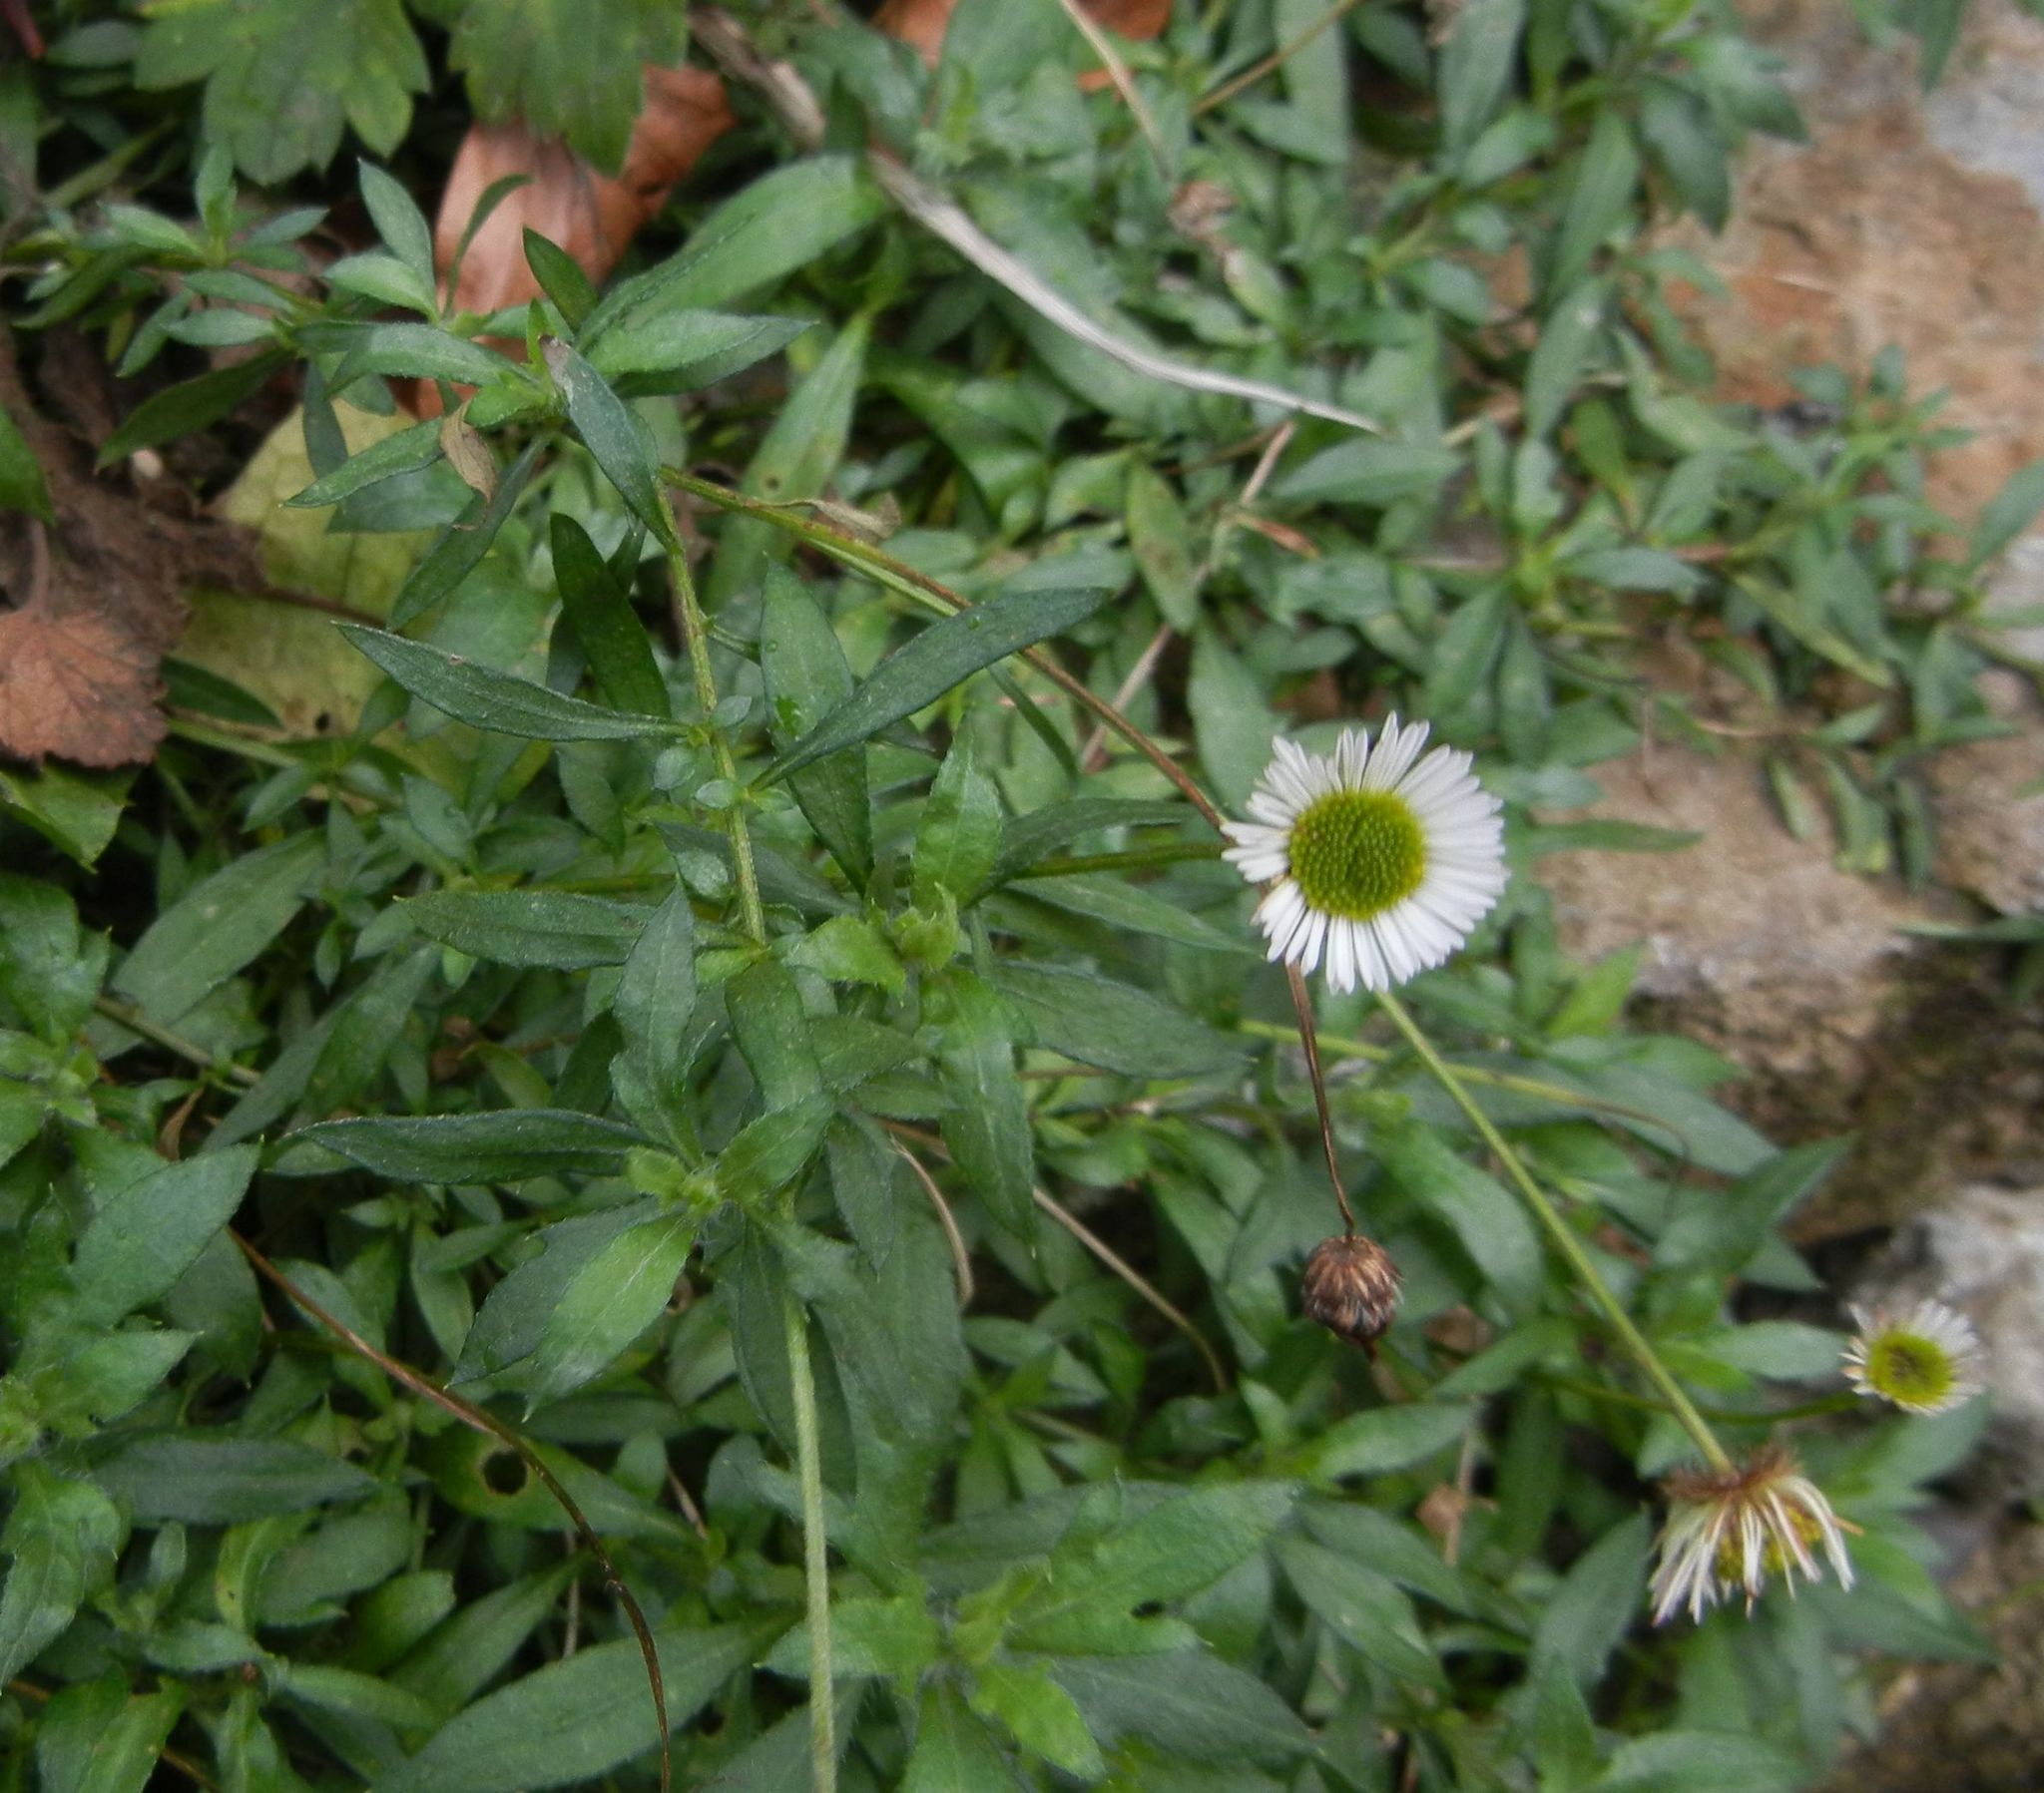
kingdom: Plantae
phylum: Tracheophyta
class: Magnoliopsida
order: Asterales
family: Asteraceae
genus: Erigeron
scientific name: Erigeron karvinskianus
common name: Mexican fleabane
